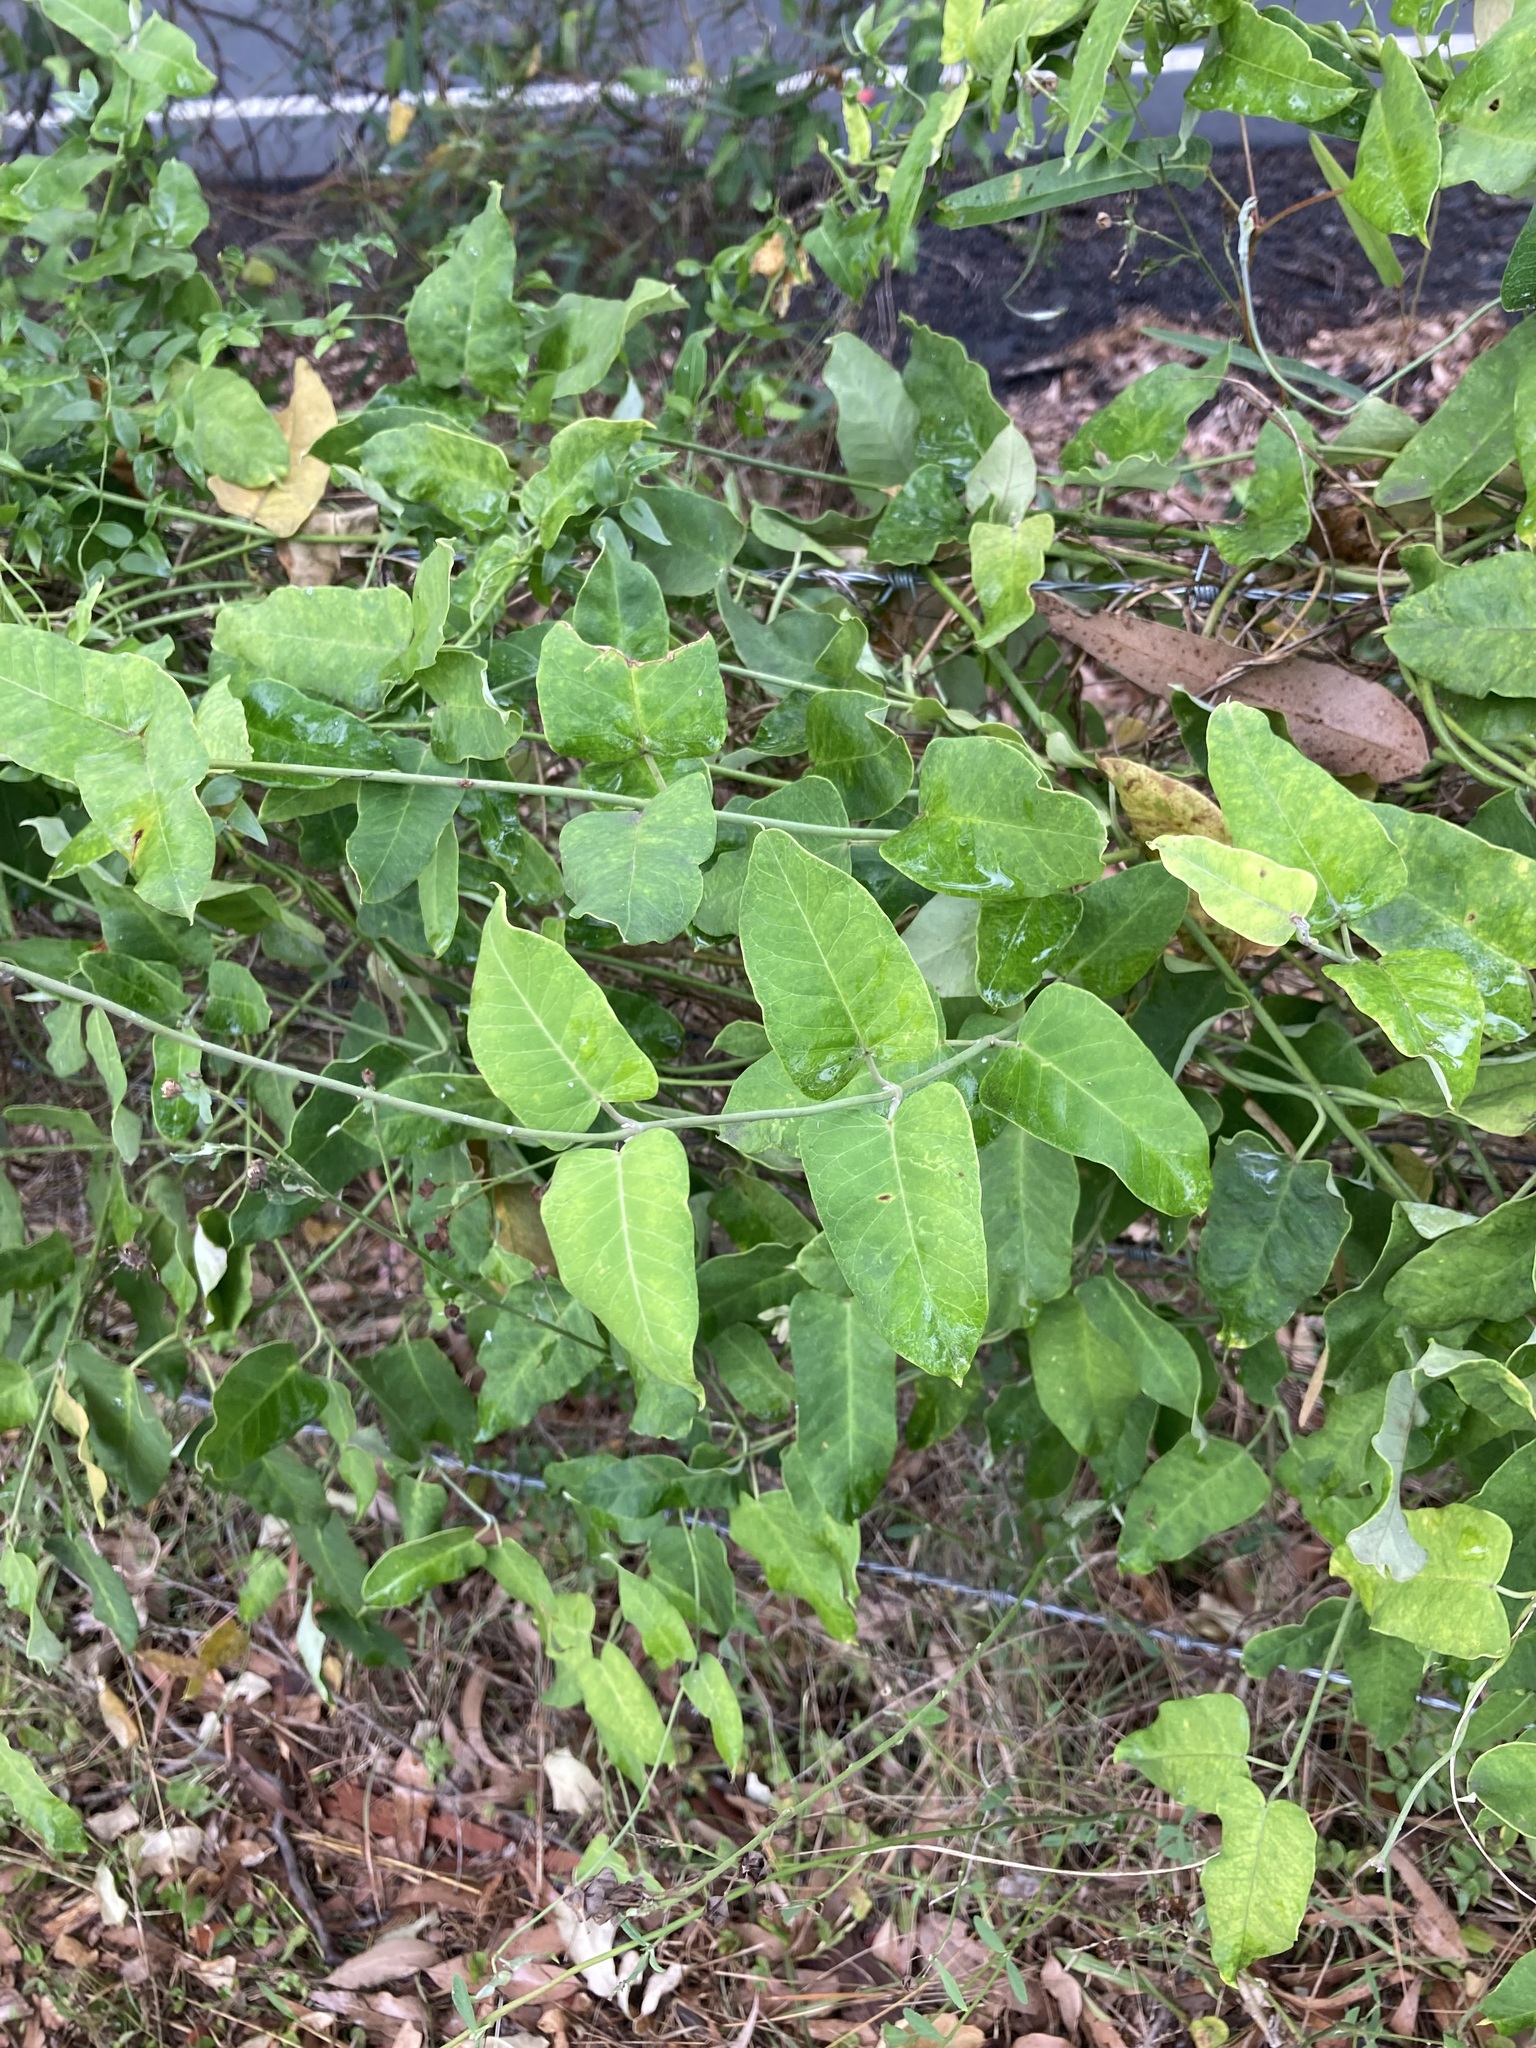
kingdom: Plantae
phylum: Tracheophyta
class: Magnoliopsida
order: Gentianales
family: Apocynaceae
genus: Araujia
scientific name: Araujia sericifera
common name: White bladderflower
